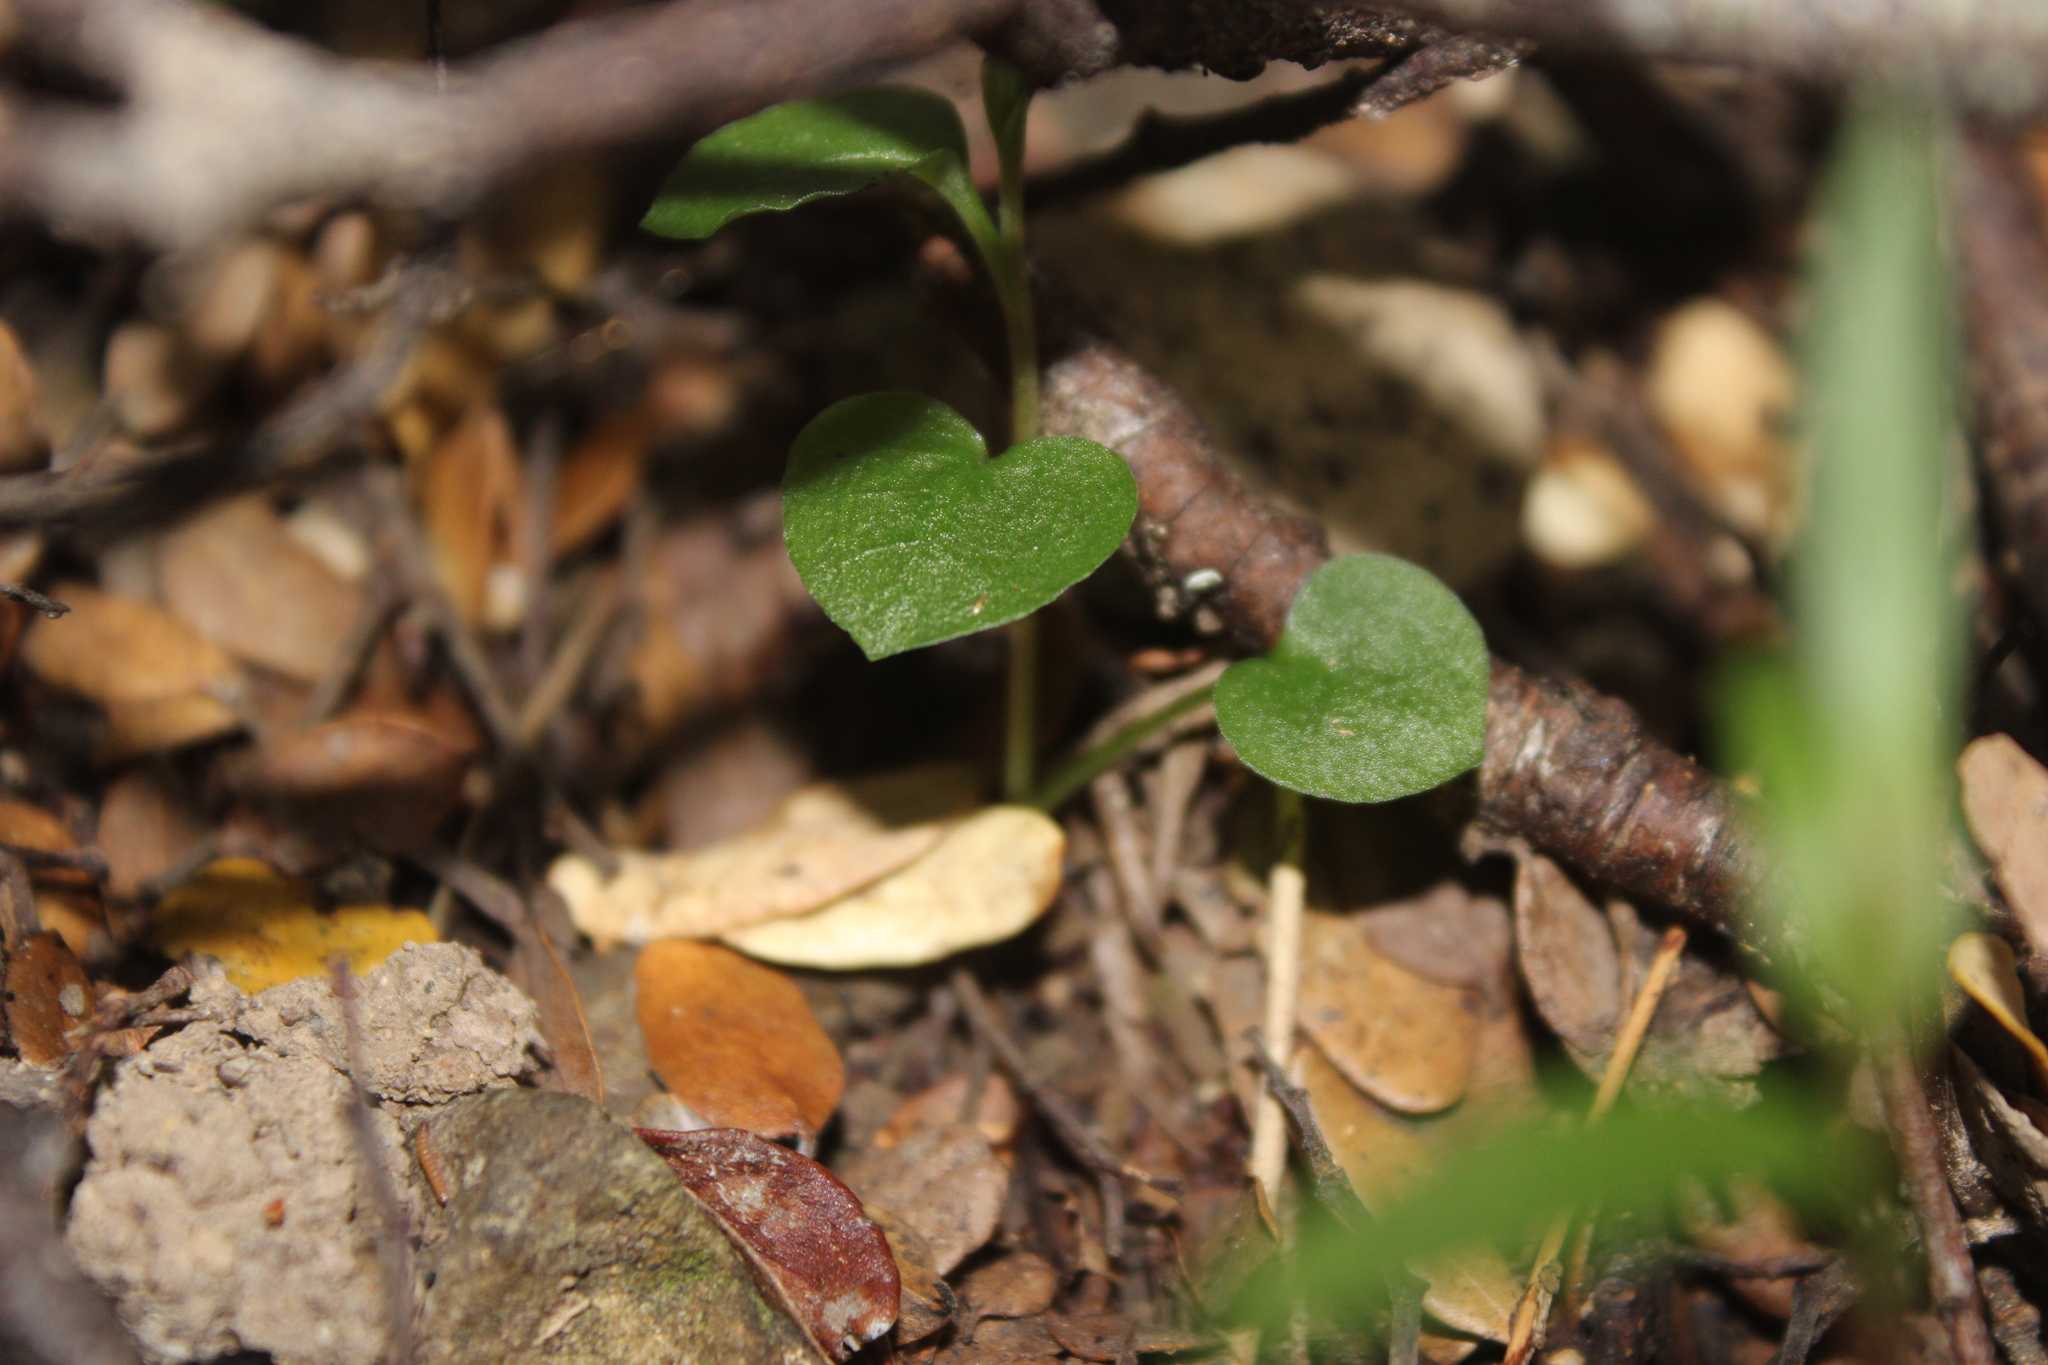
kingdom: Plantae
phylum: Tracheophyta
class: Liliopsida
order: Asparagales
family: Orchidaceae
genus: Pterostylis
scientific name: Pterostylis alobula
